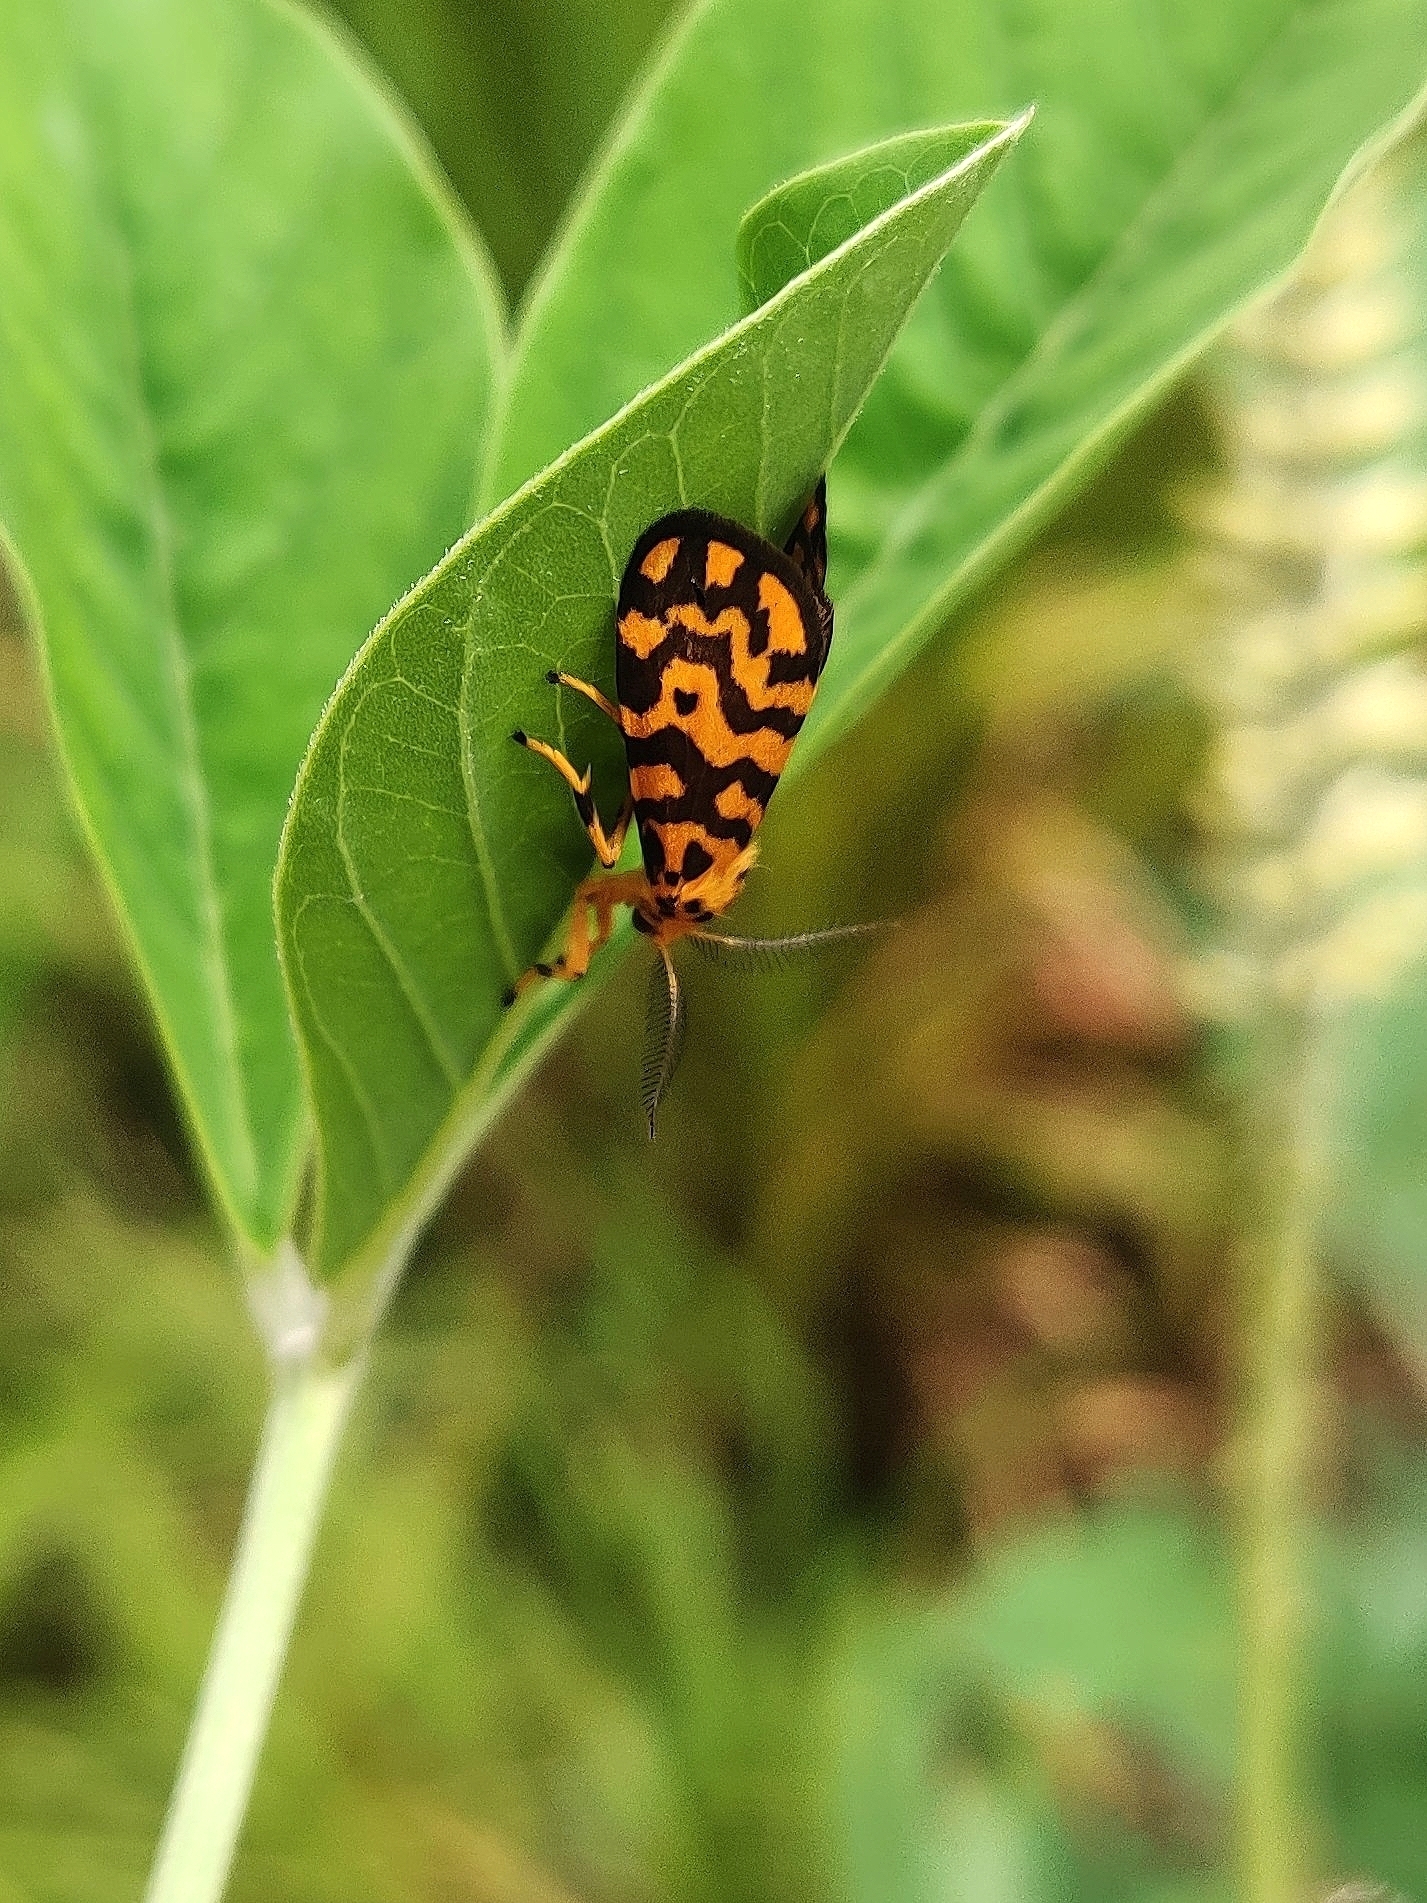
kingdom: Animalia
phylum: Arthropoda
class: Insecta
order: Lepidoptera
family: Erebidae
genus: Nepita
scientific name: Nepita conferta
